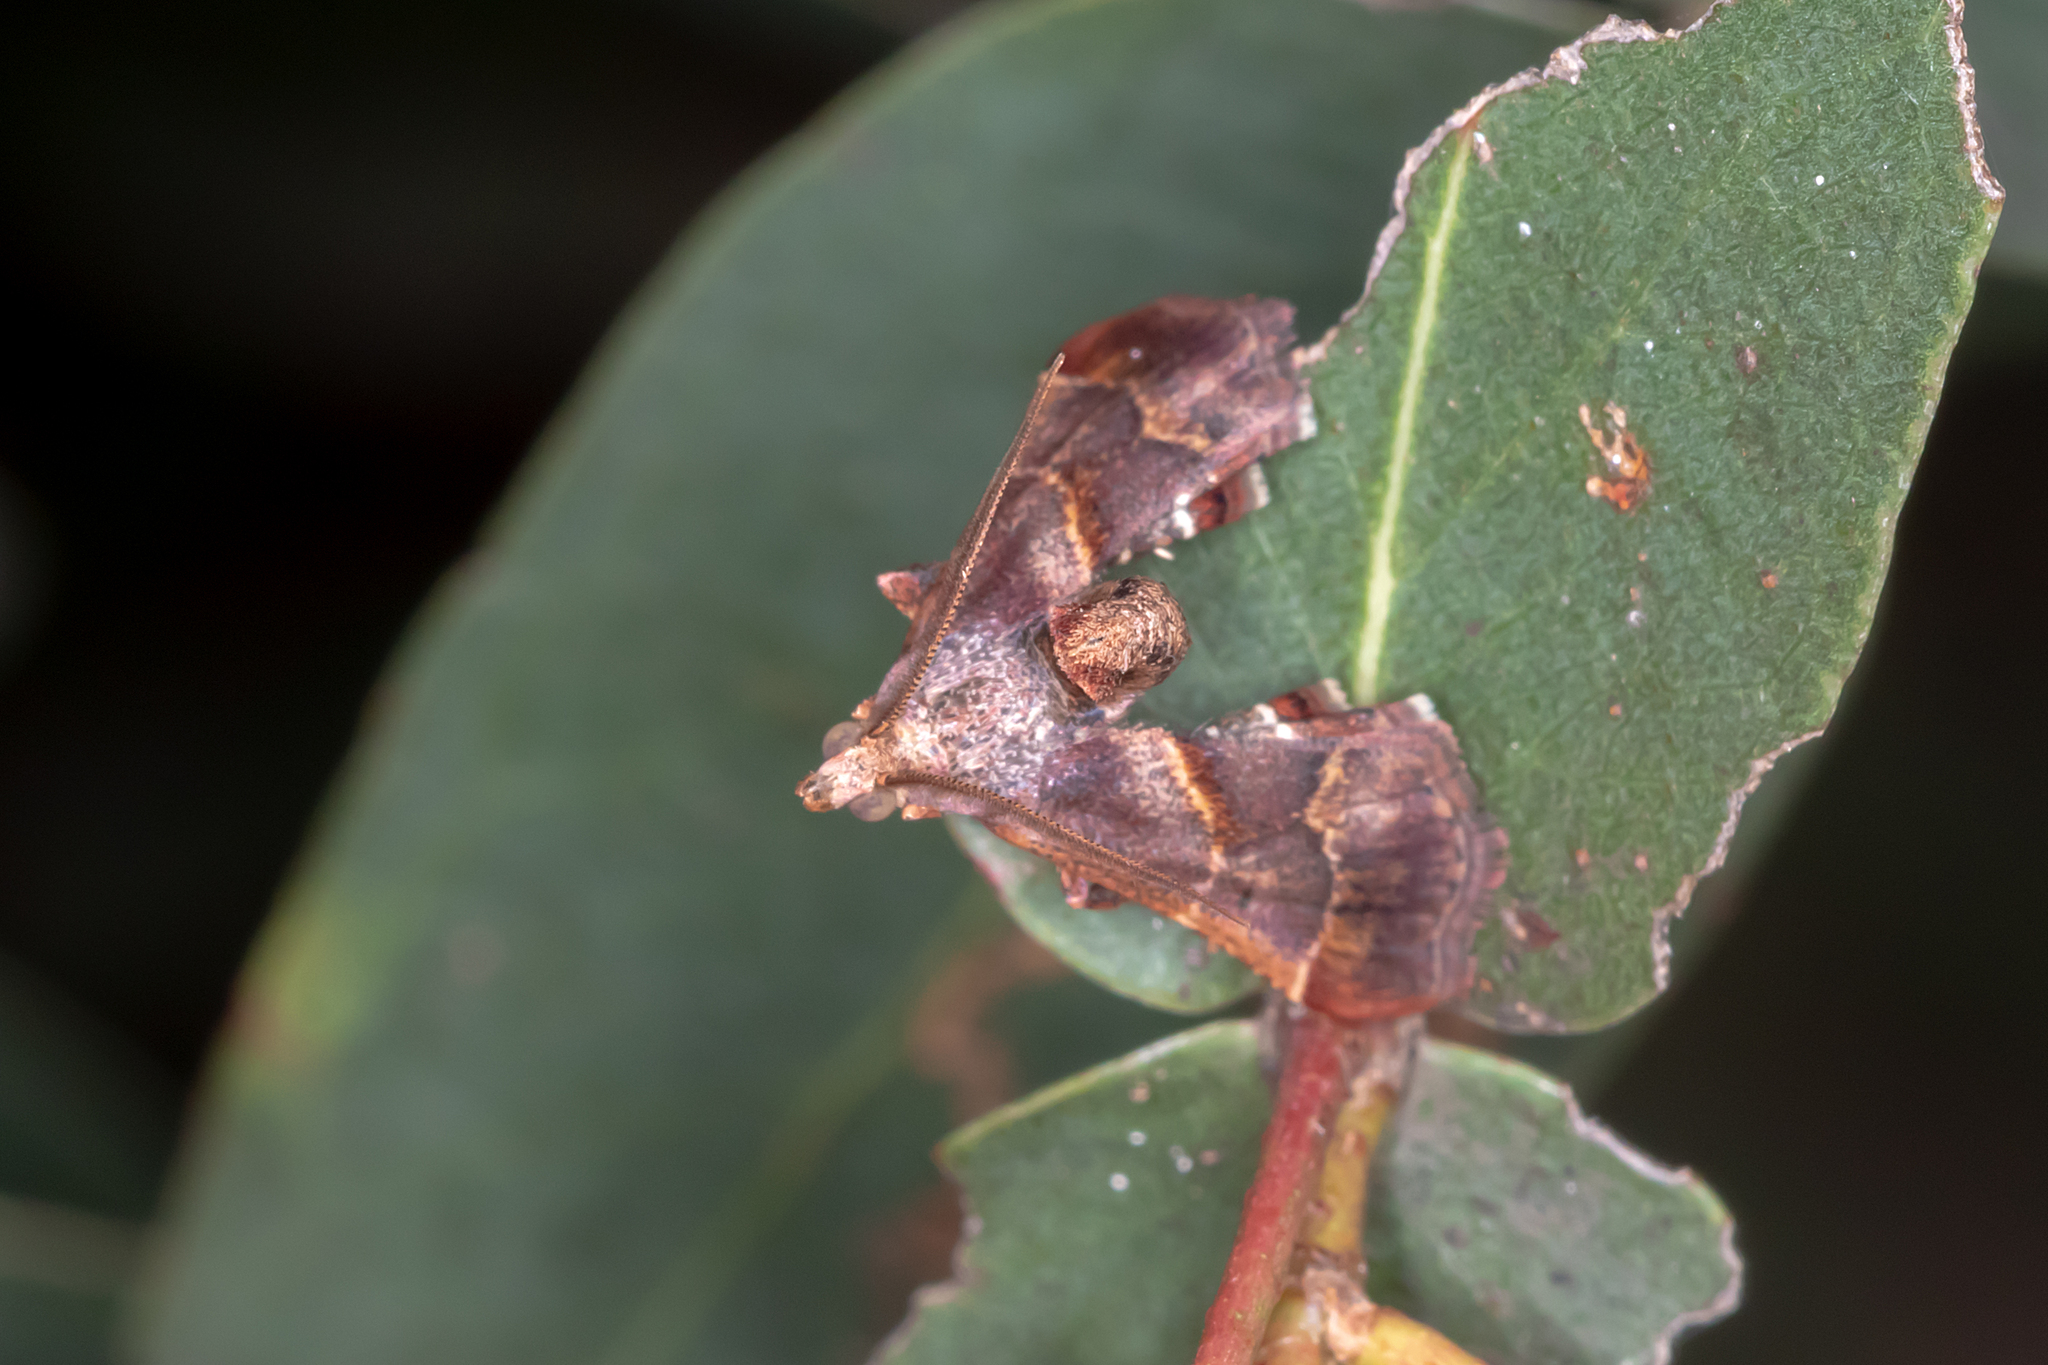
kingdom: Animalia
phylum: Arthropoda
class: Insecta
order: Lepidoptera
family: Pyralidae
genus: Gauna
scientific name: Gauna aegusalis
